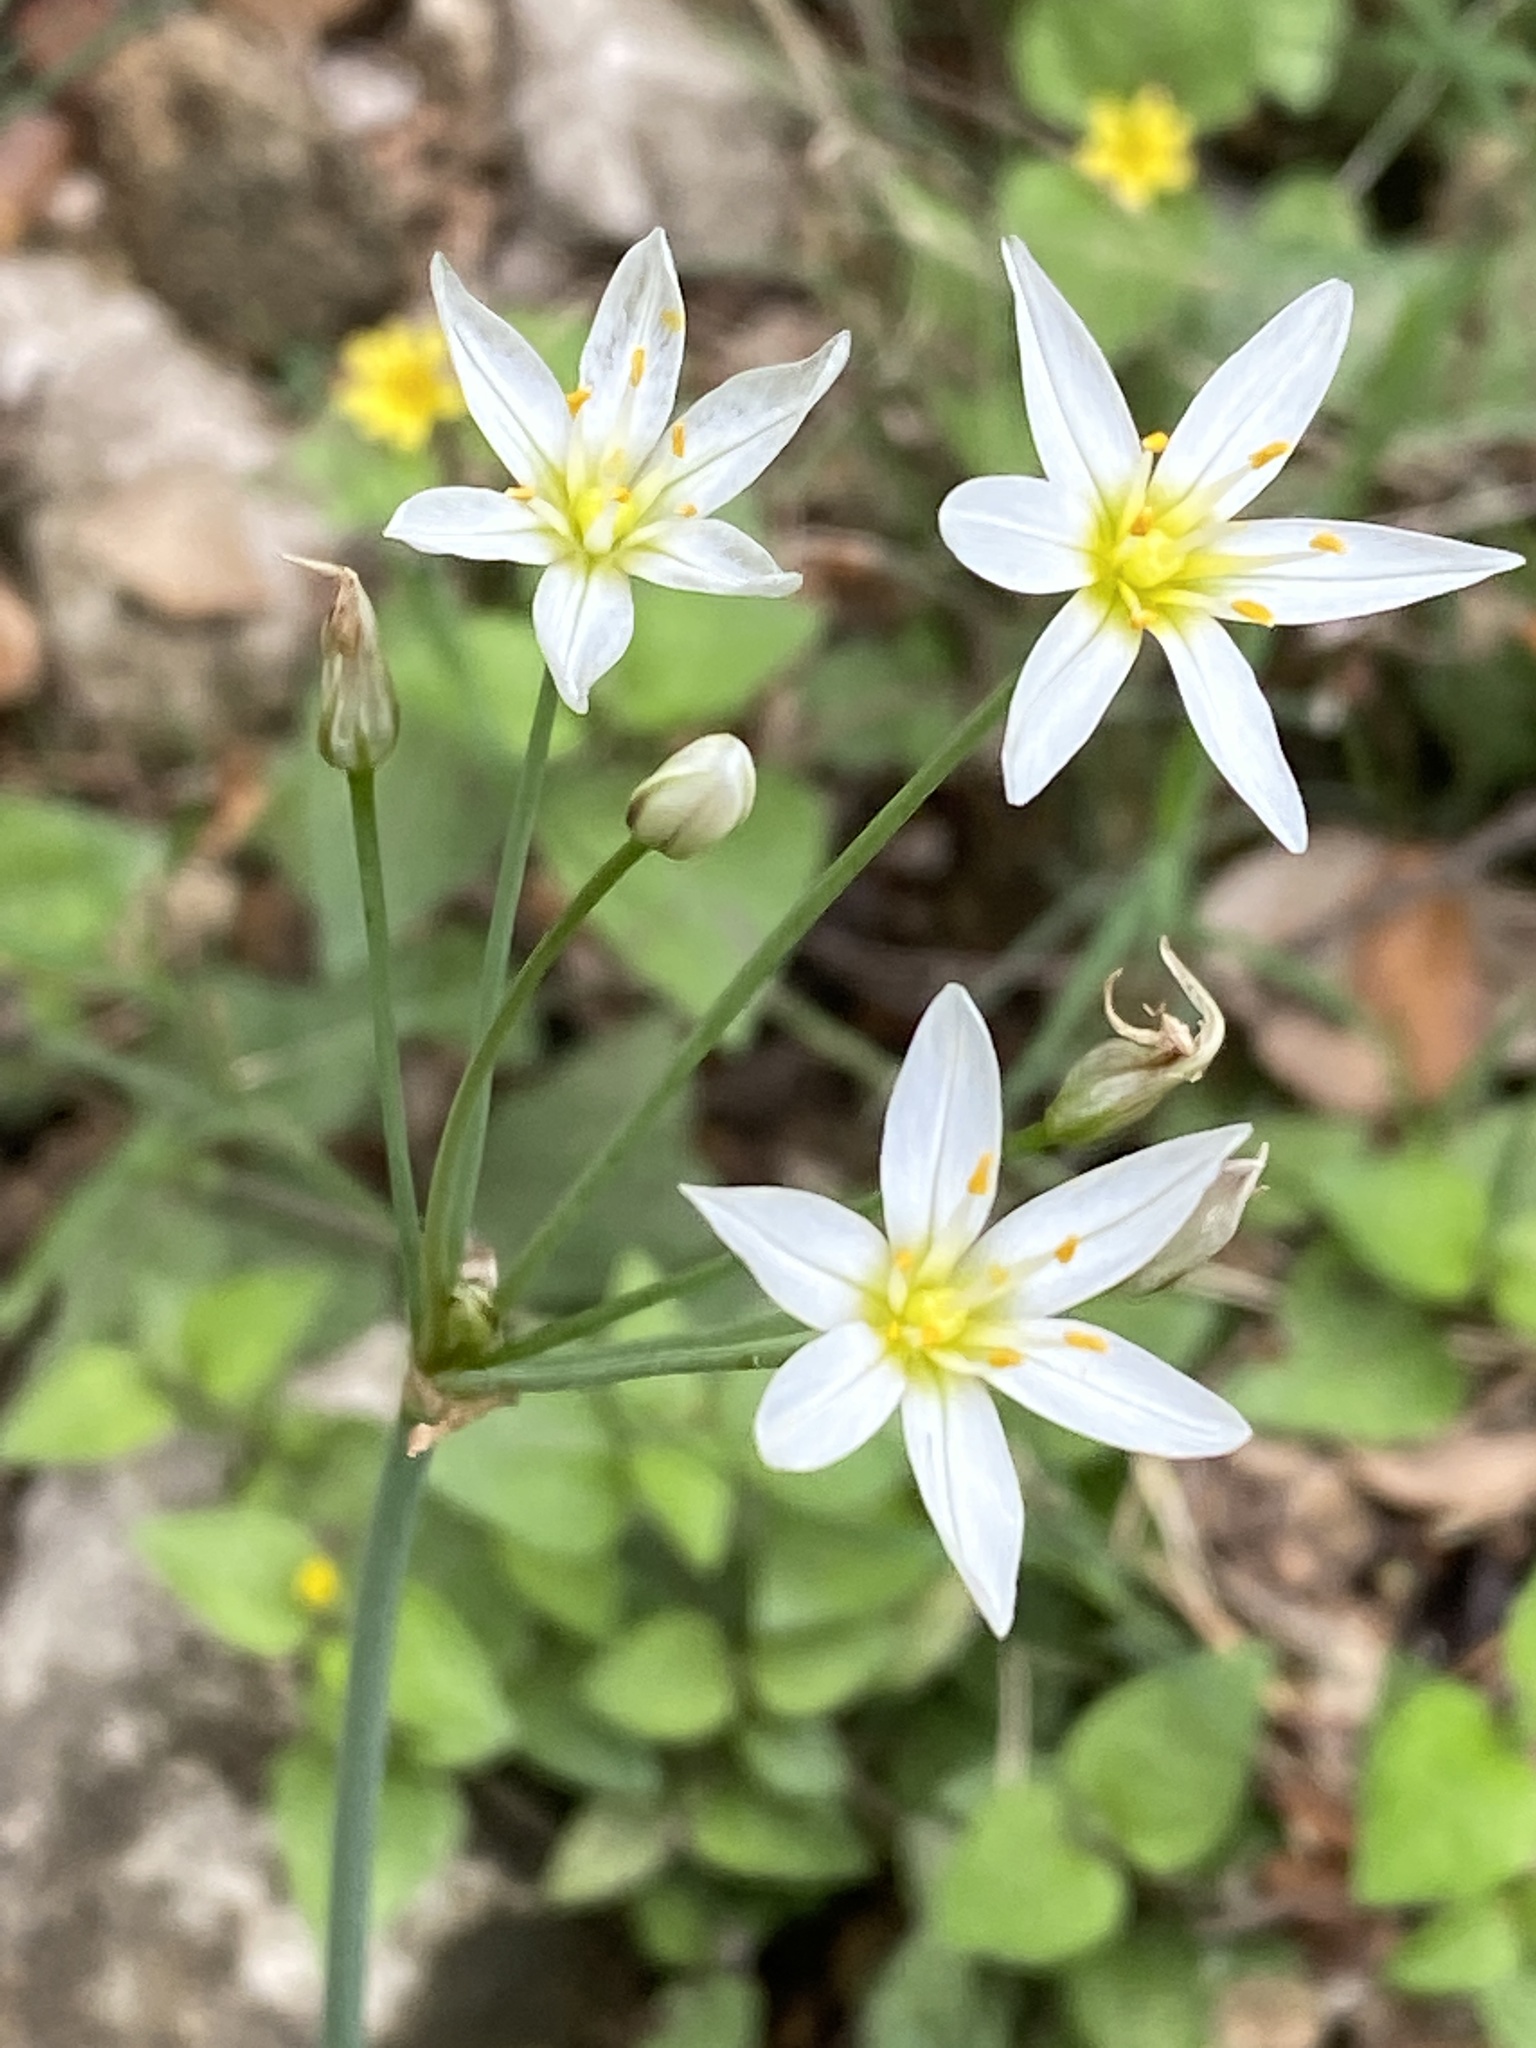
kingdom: Plantae
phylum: Tracheophyta
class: Liliopsida
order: Asparagales
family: Amaryllidaceae
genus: Nothoscordum
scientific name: Nothoscordum bivalve
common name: Crow-poison
